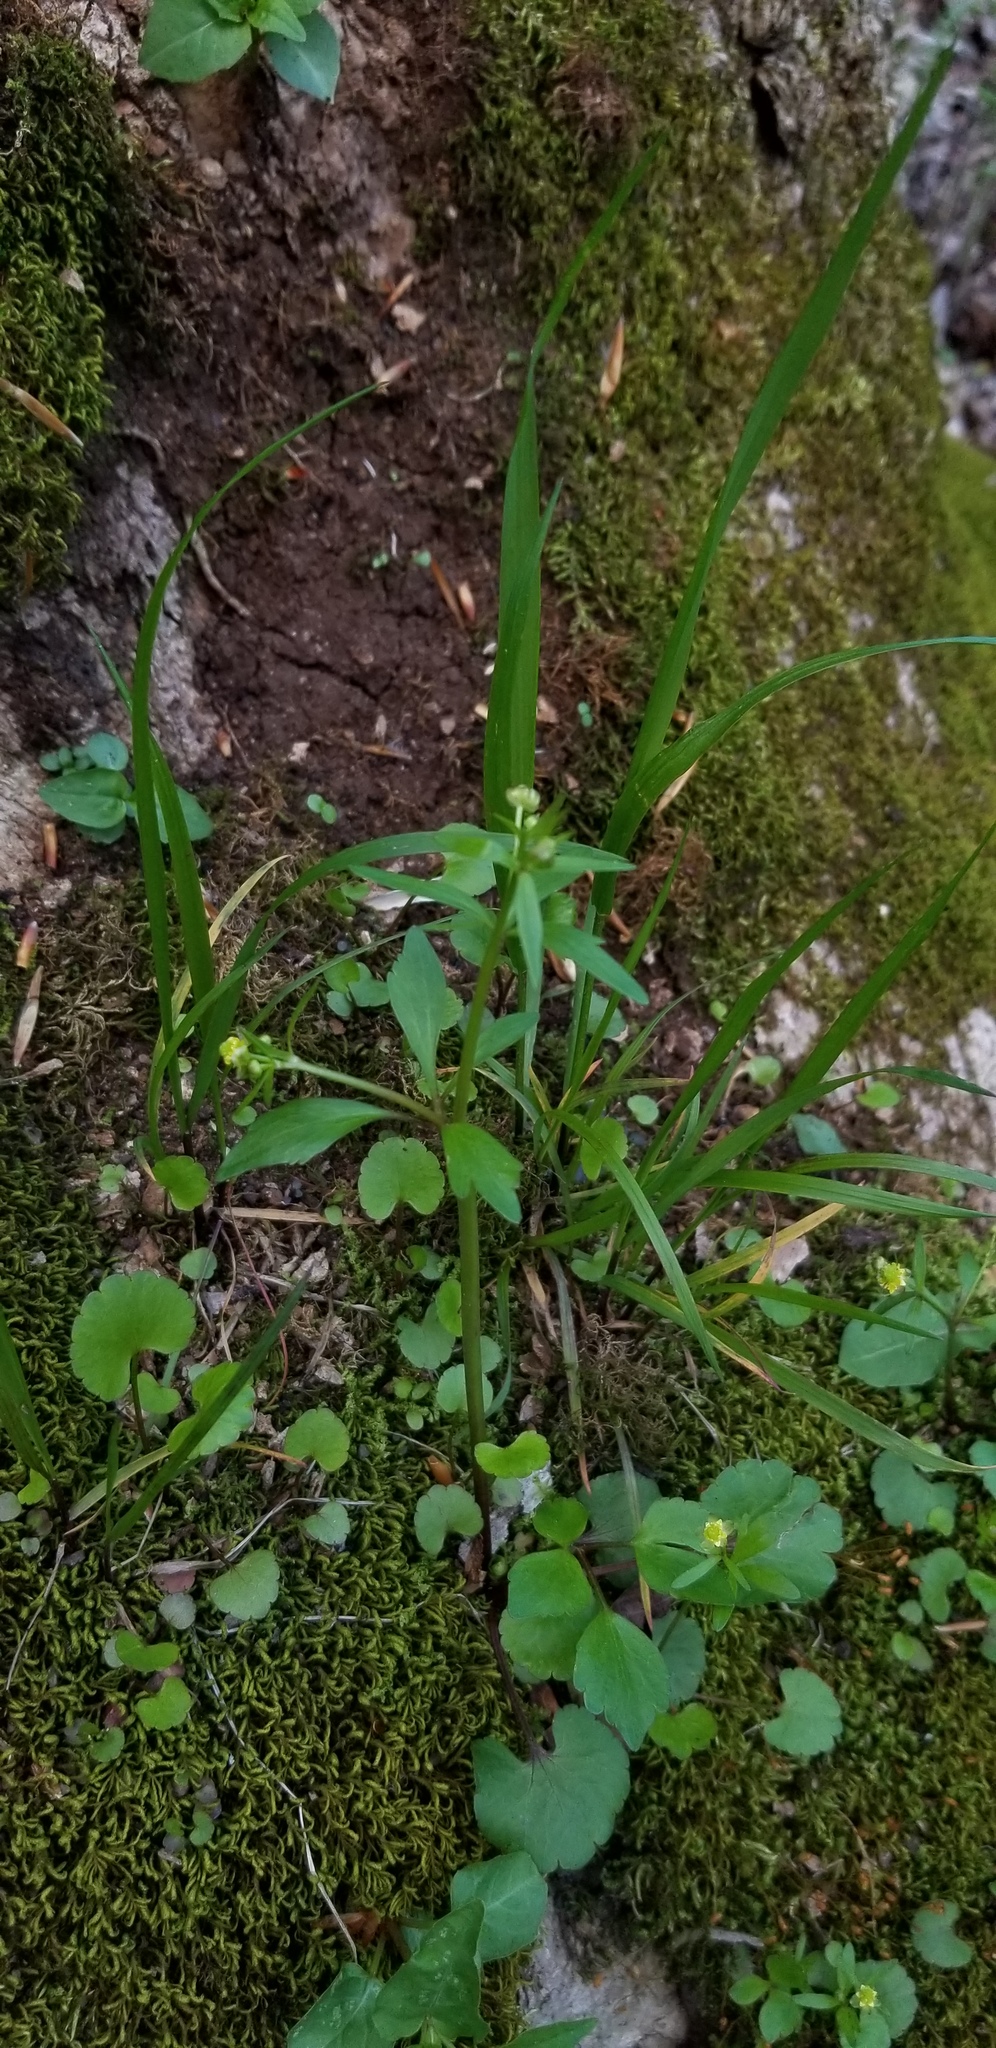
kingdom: Plantae
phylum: Tracheophyta
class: Magnoliopsida
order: Ranunculales
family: Ranunculaceae
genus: Ranunculus
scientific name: Ranunculus abortivus
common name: Early wood buttercup
